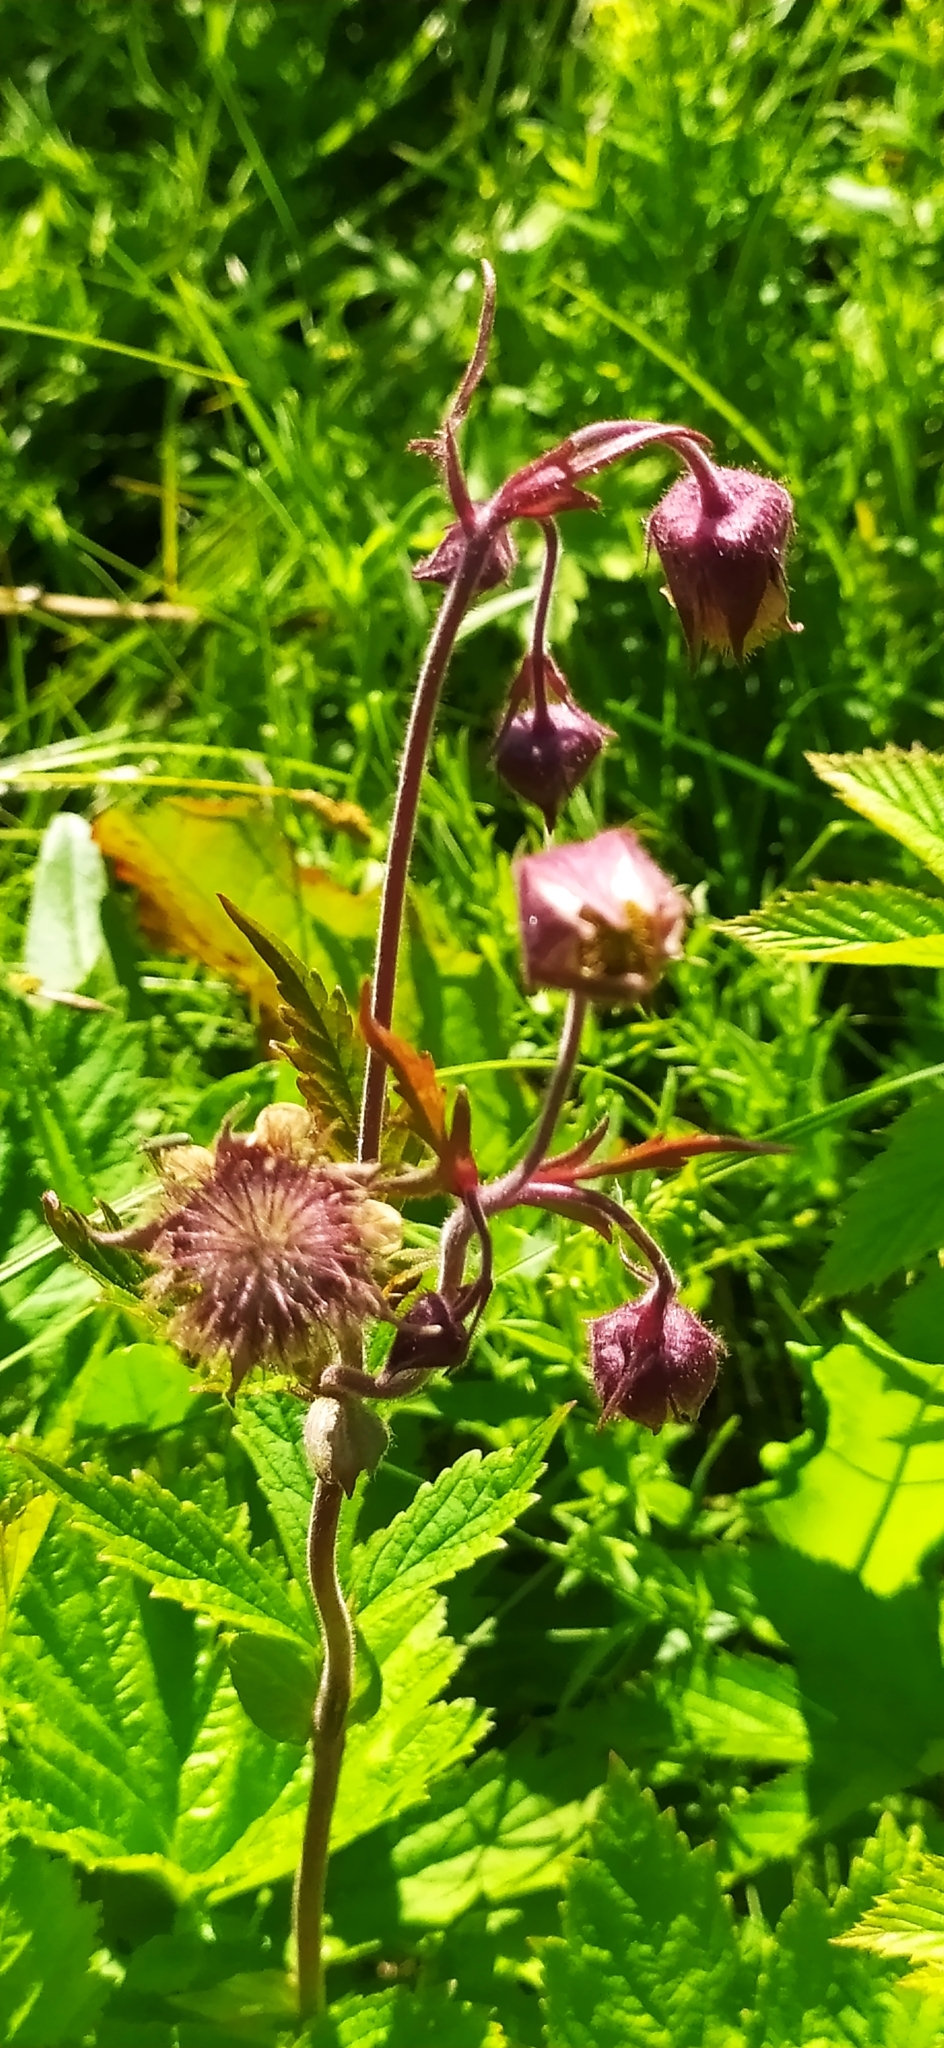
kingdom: Plantae
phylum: Tracheophyta
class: Magnoliopsida
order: Rosales
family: Rosaceae
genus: Geum
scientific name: Geum rivale
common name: Water avens
